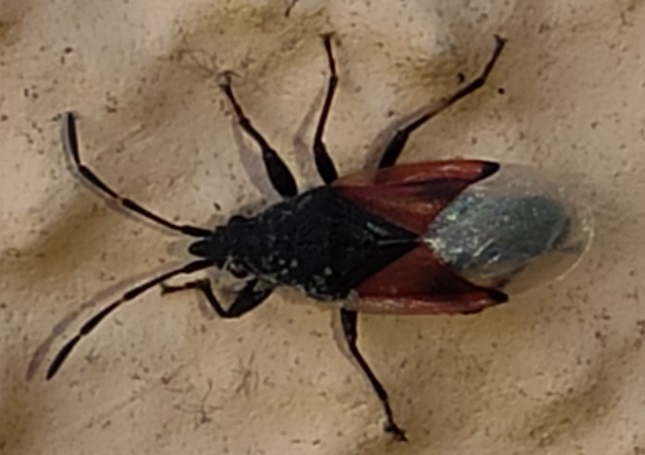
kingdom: Animalia
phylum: Arthropoda
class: Insecta
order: Hemiptera
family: Oxycarenidae
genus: Oxycarenus
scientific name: Oxycarenus lavaterae
